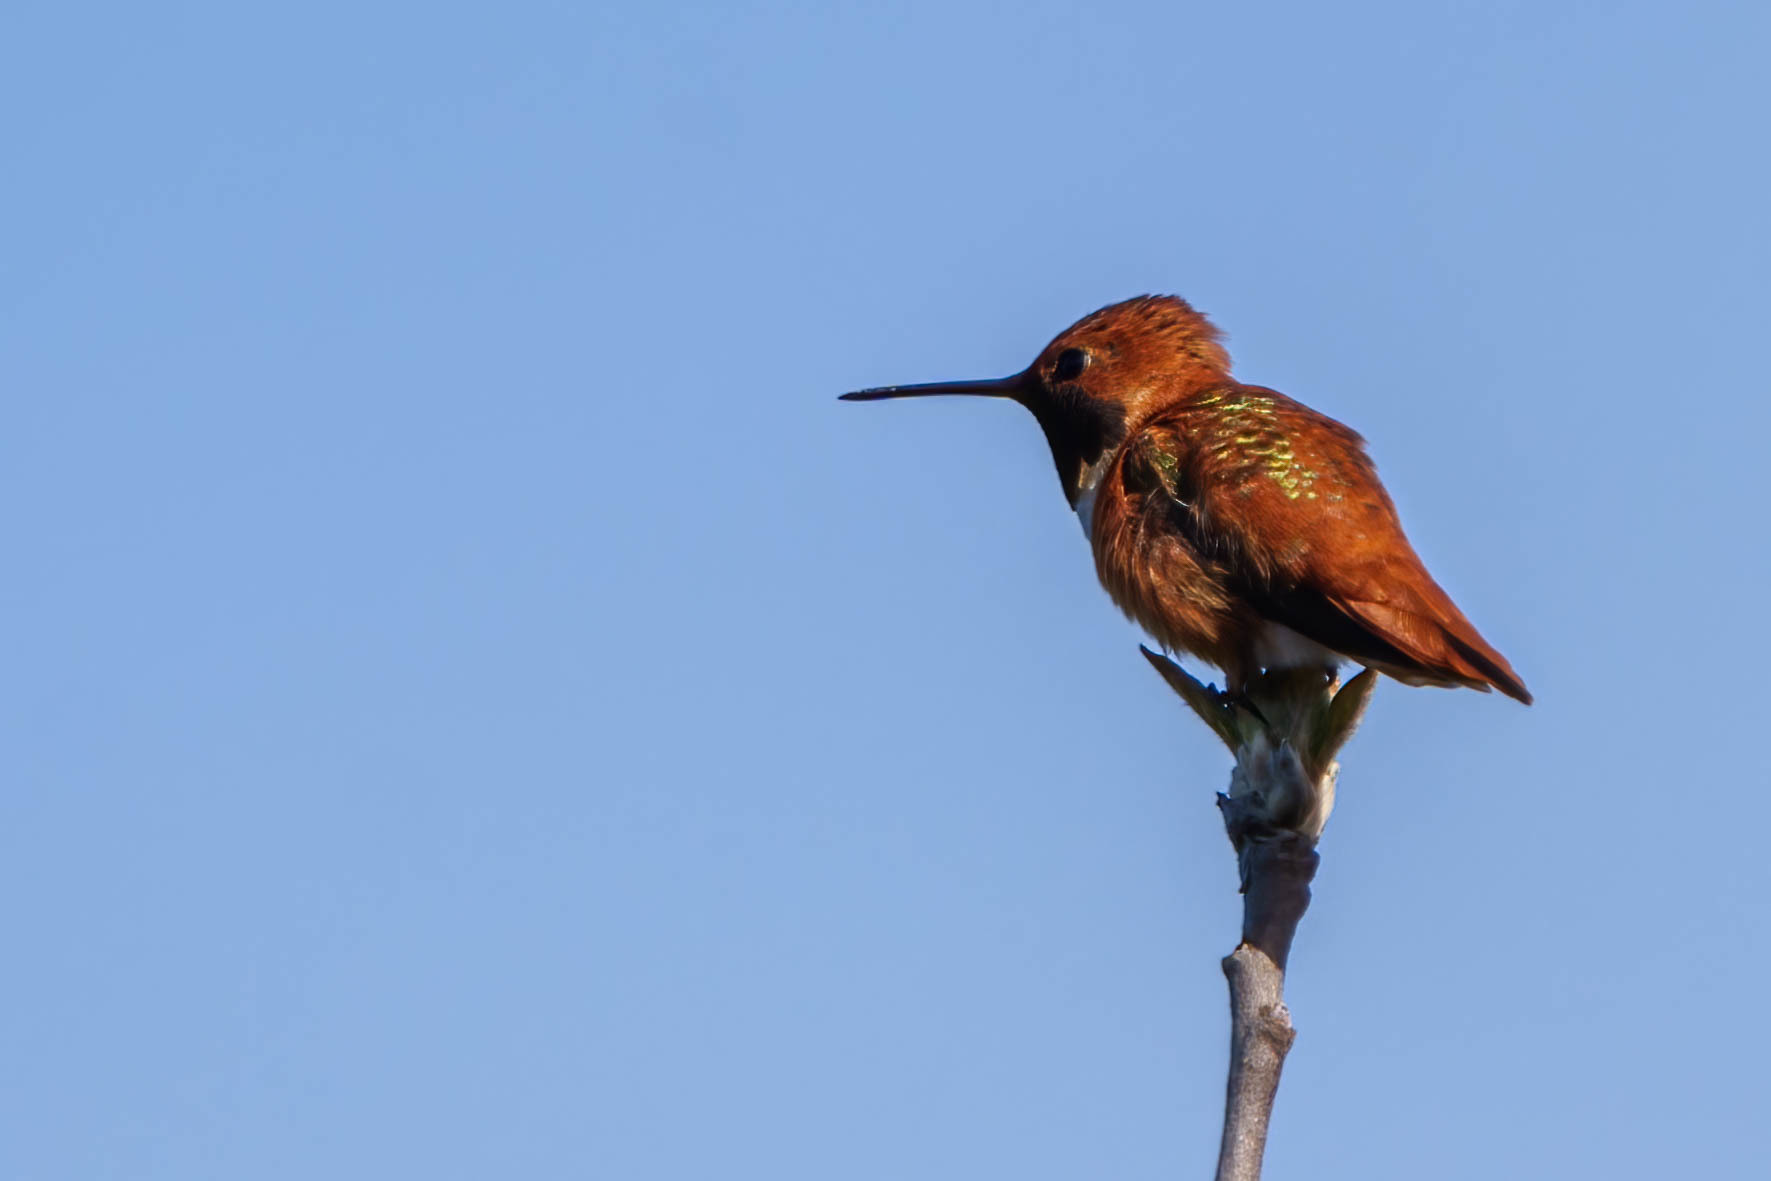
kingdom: Animalia
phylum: Chordata
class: Aves
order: Apodiformes
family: Trochilidae
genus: Selasphorus
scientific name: Selasphorus rufus
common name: Rufous hummingbird
